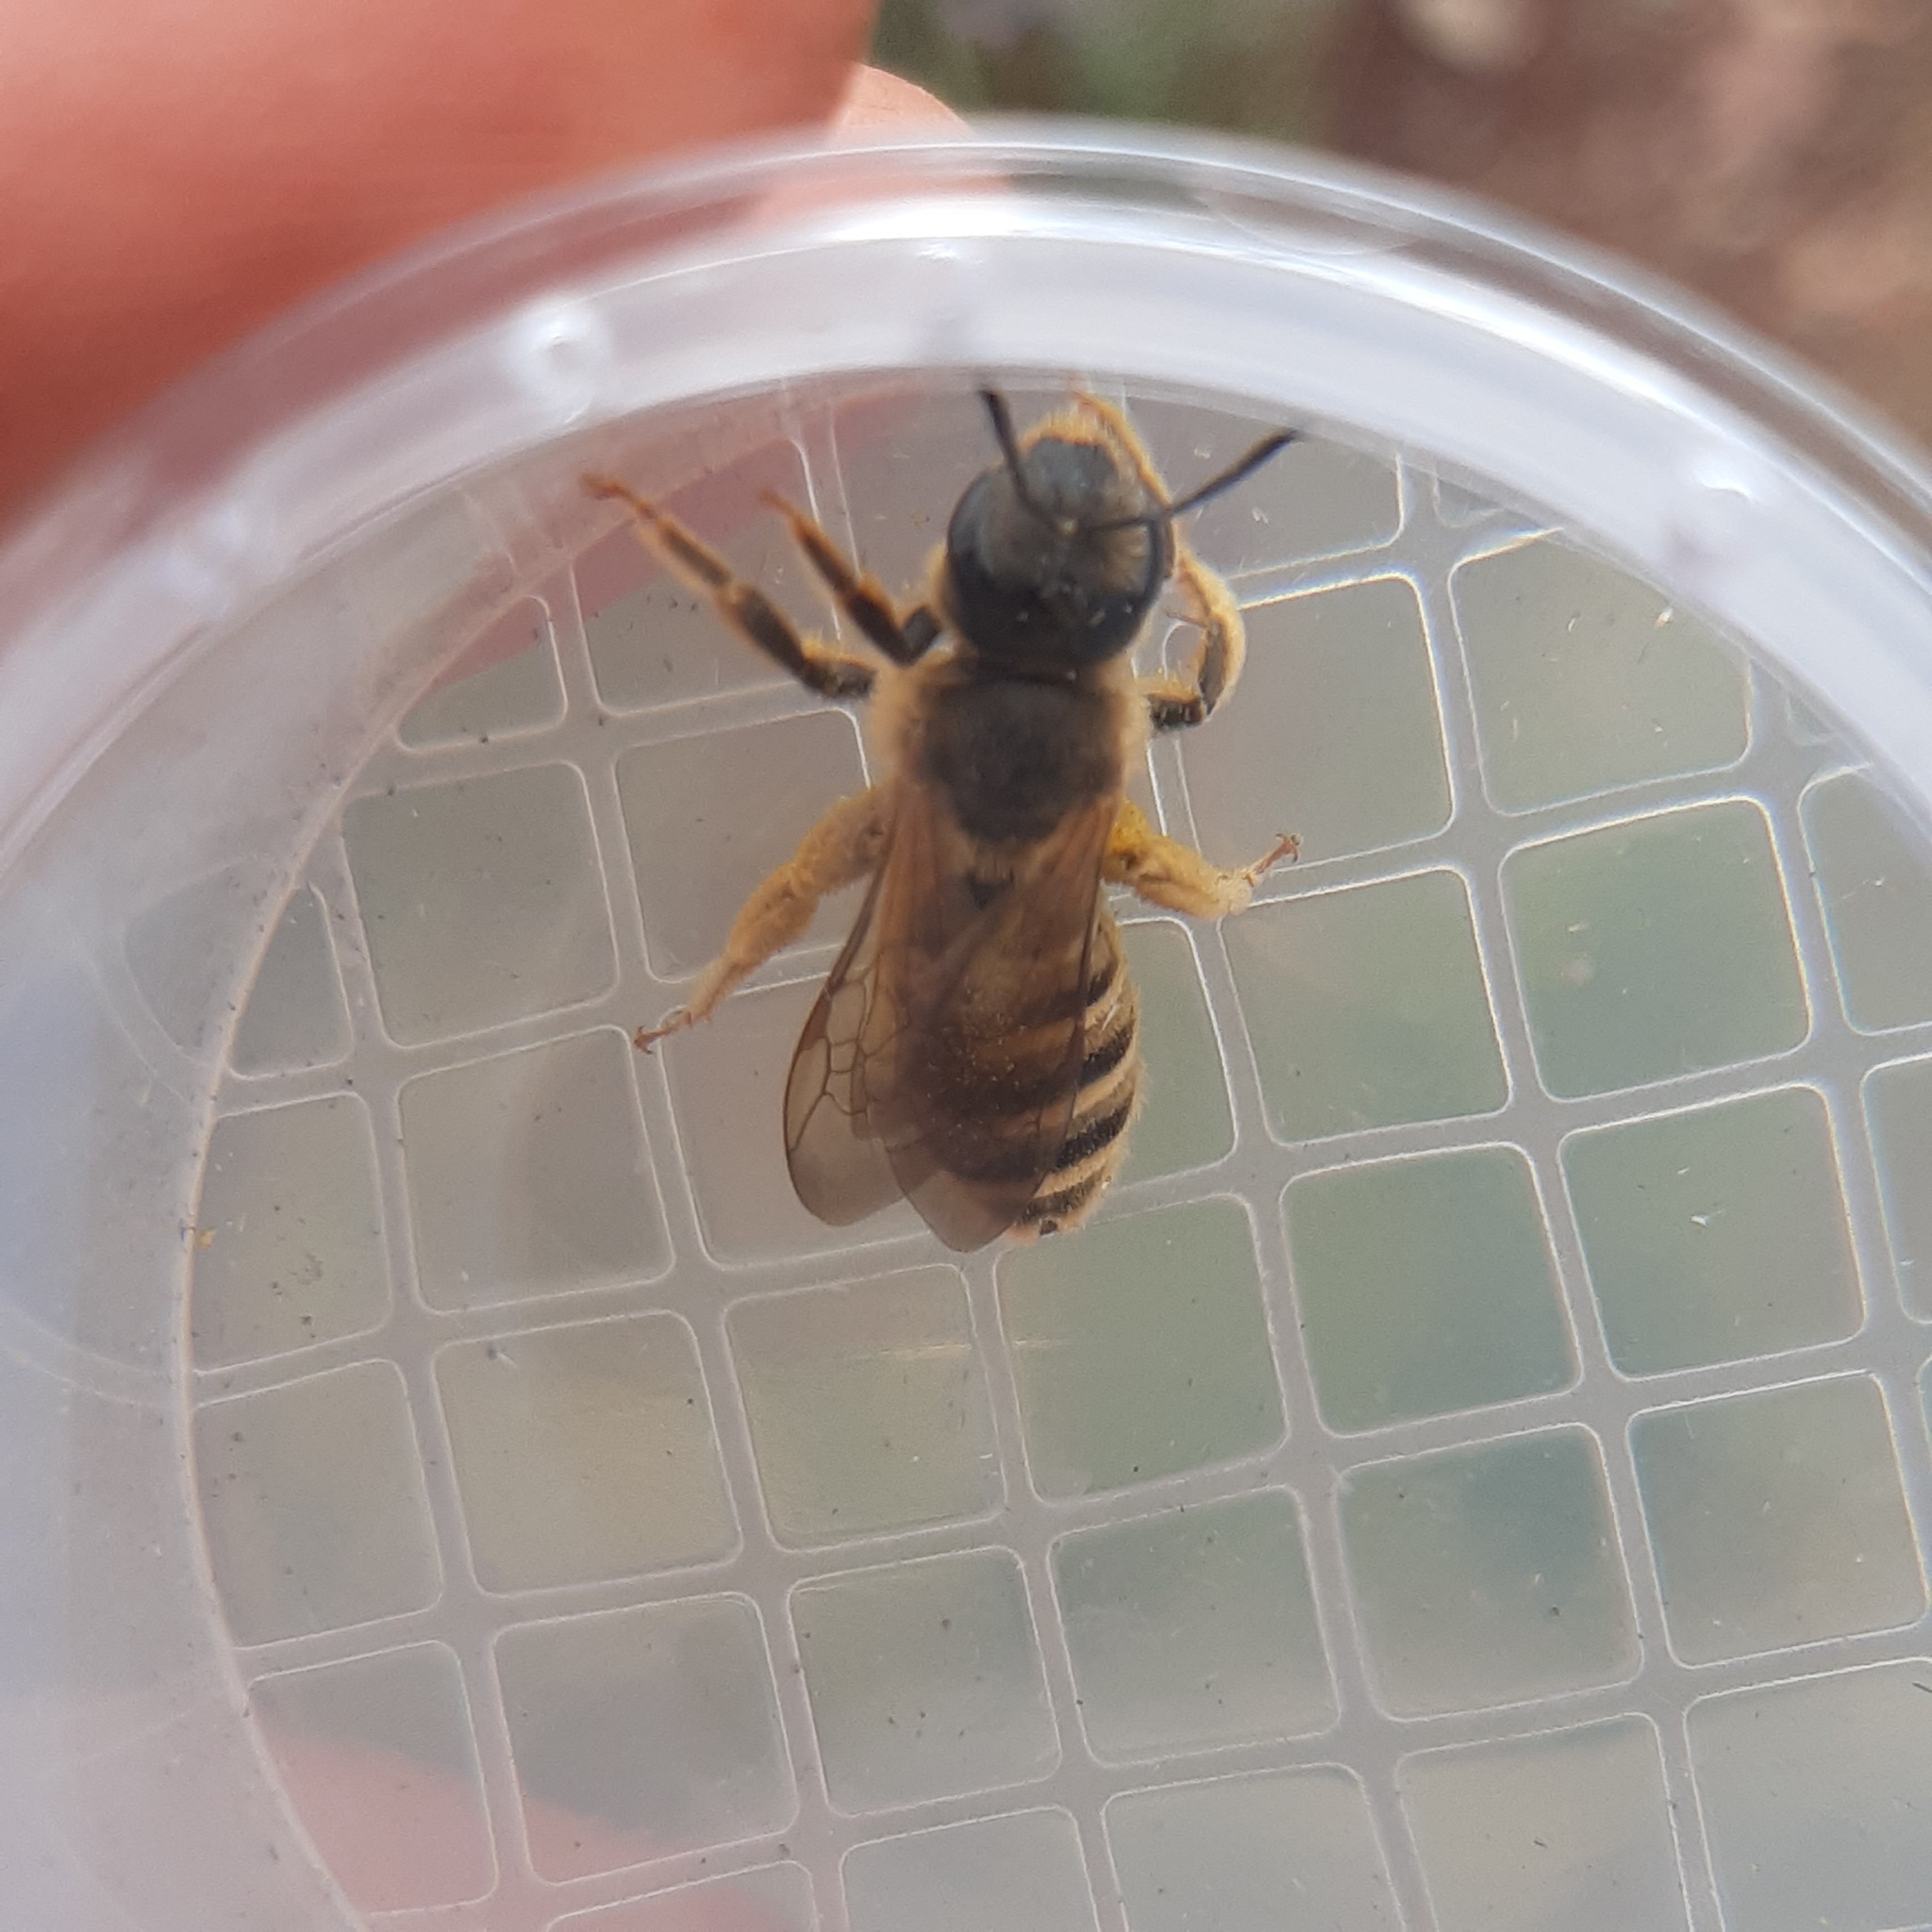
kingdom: Animalia
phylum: Arthropoda
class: Insecta
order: Hymenoptera
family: Halictidae
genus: Halictus
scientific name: Halictus scabiosae
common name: Great banded furrow bee
